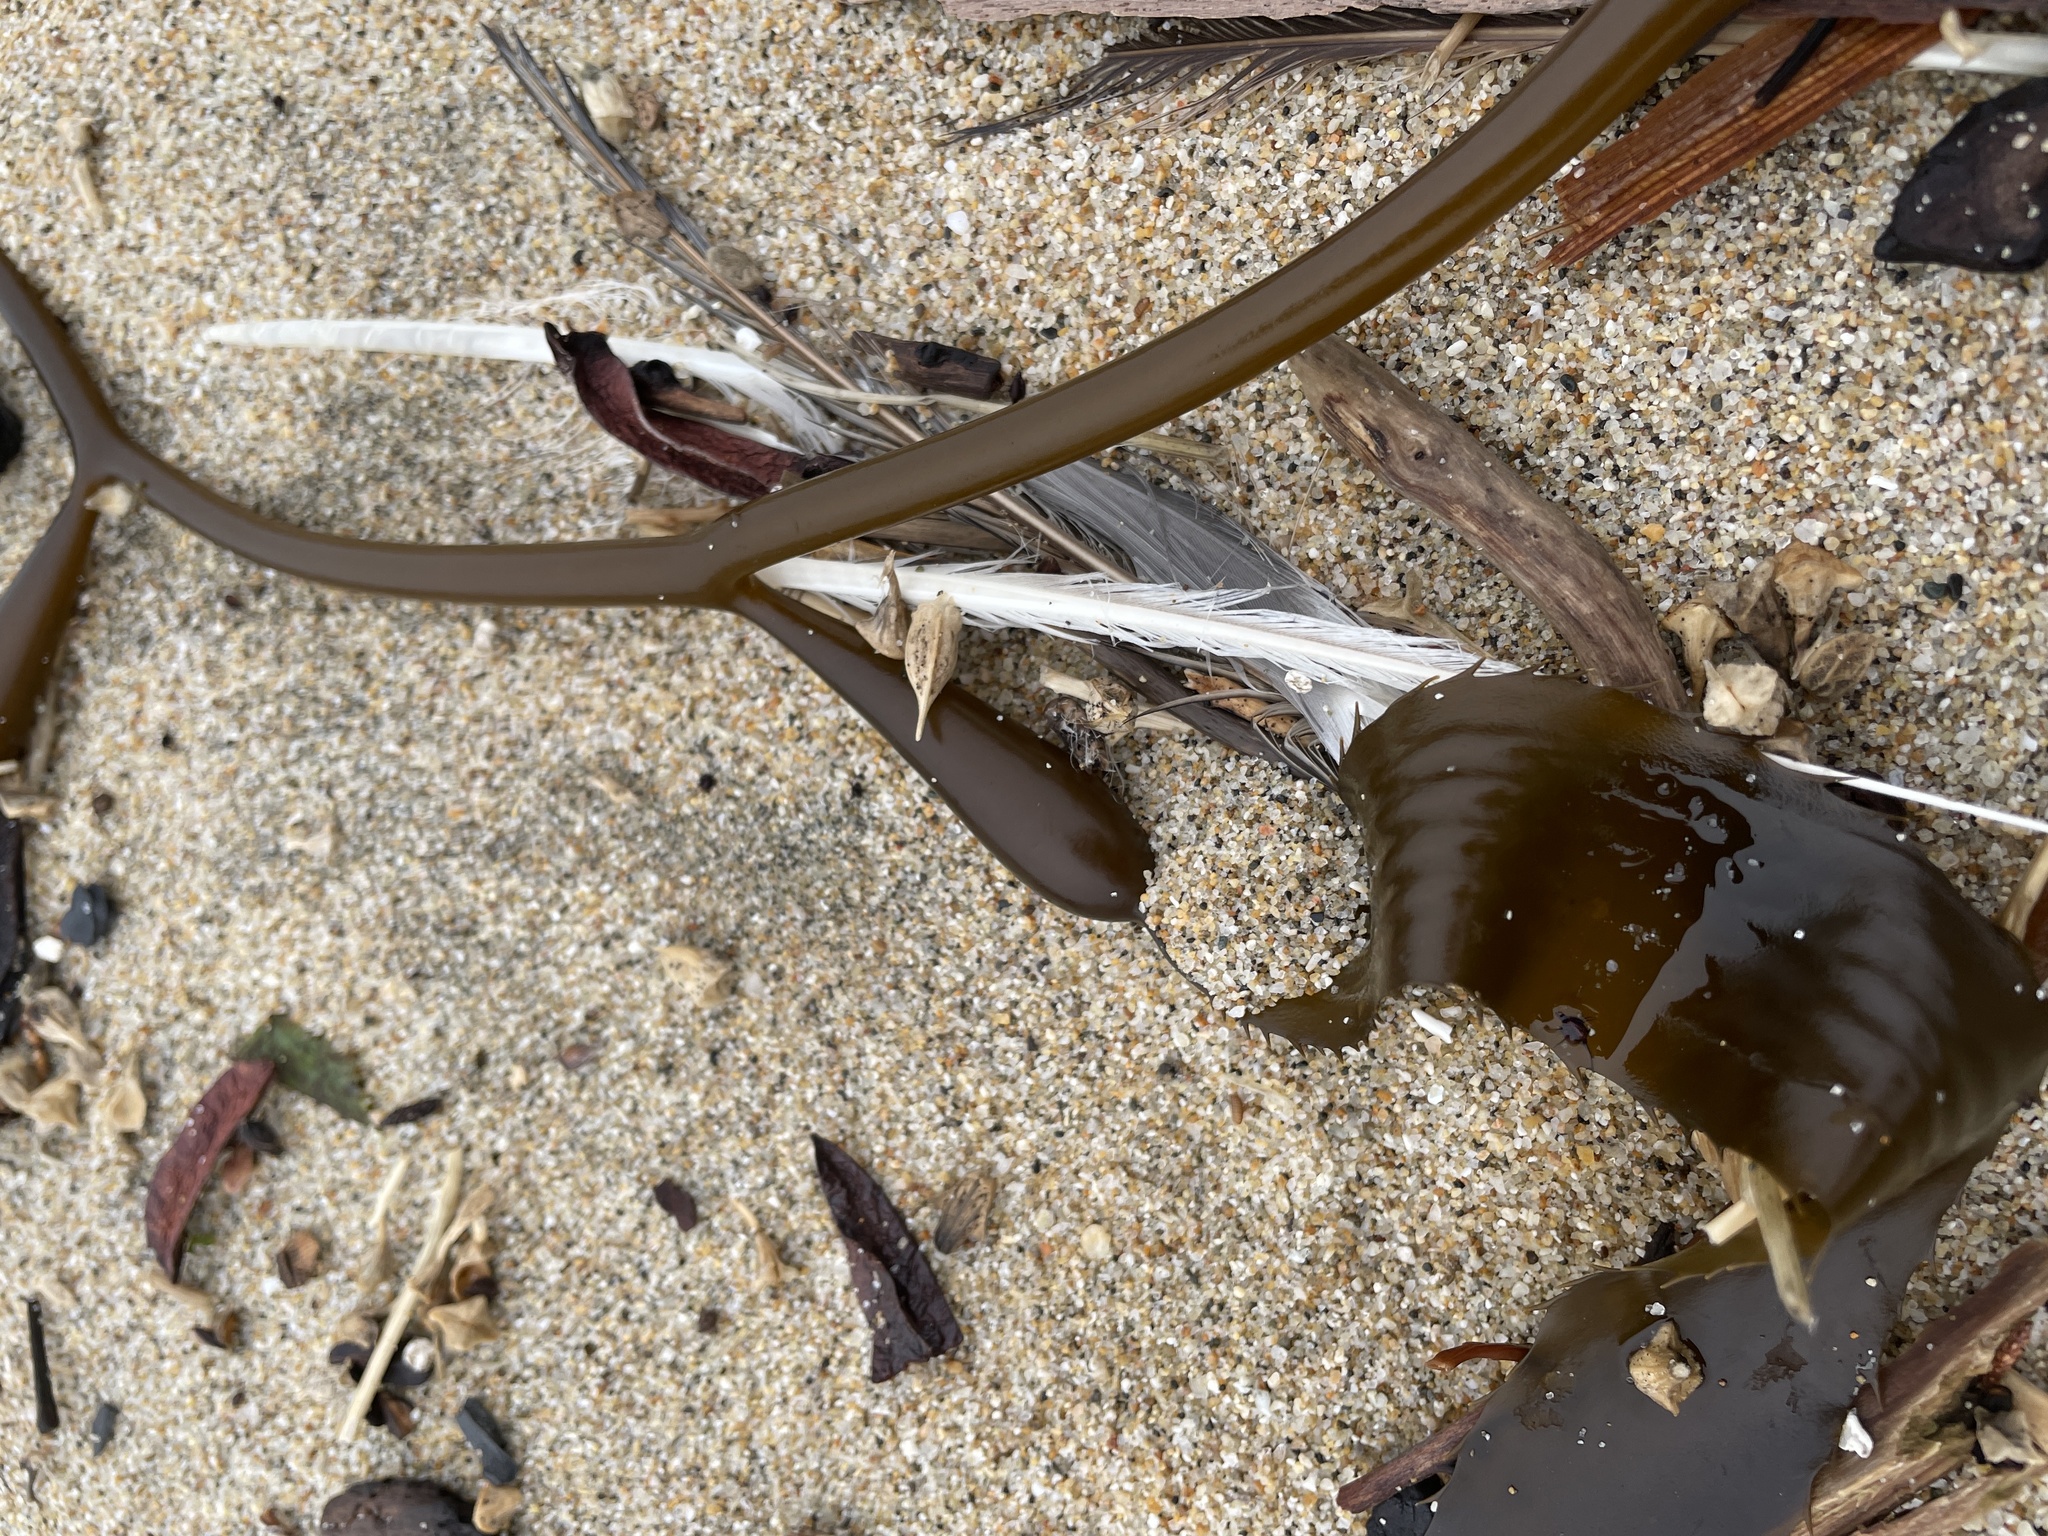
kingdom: Chromista
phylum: Ochrophyta
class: Phaeophyceae
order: Laminariales
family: Laminariaceae
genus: Macrocystis
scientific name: Macrocystis pyrifera
